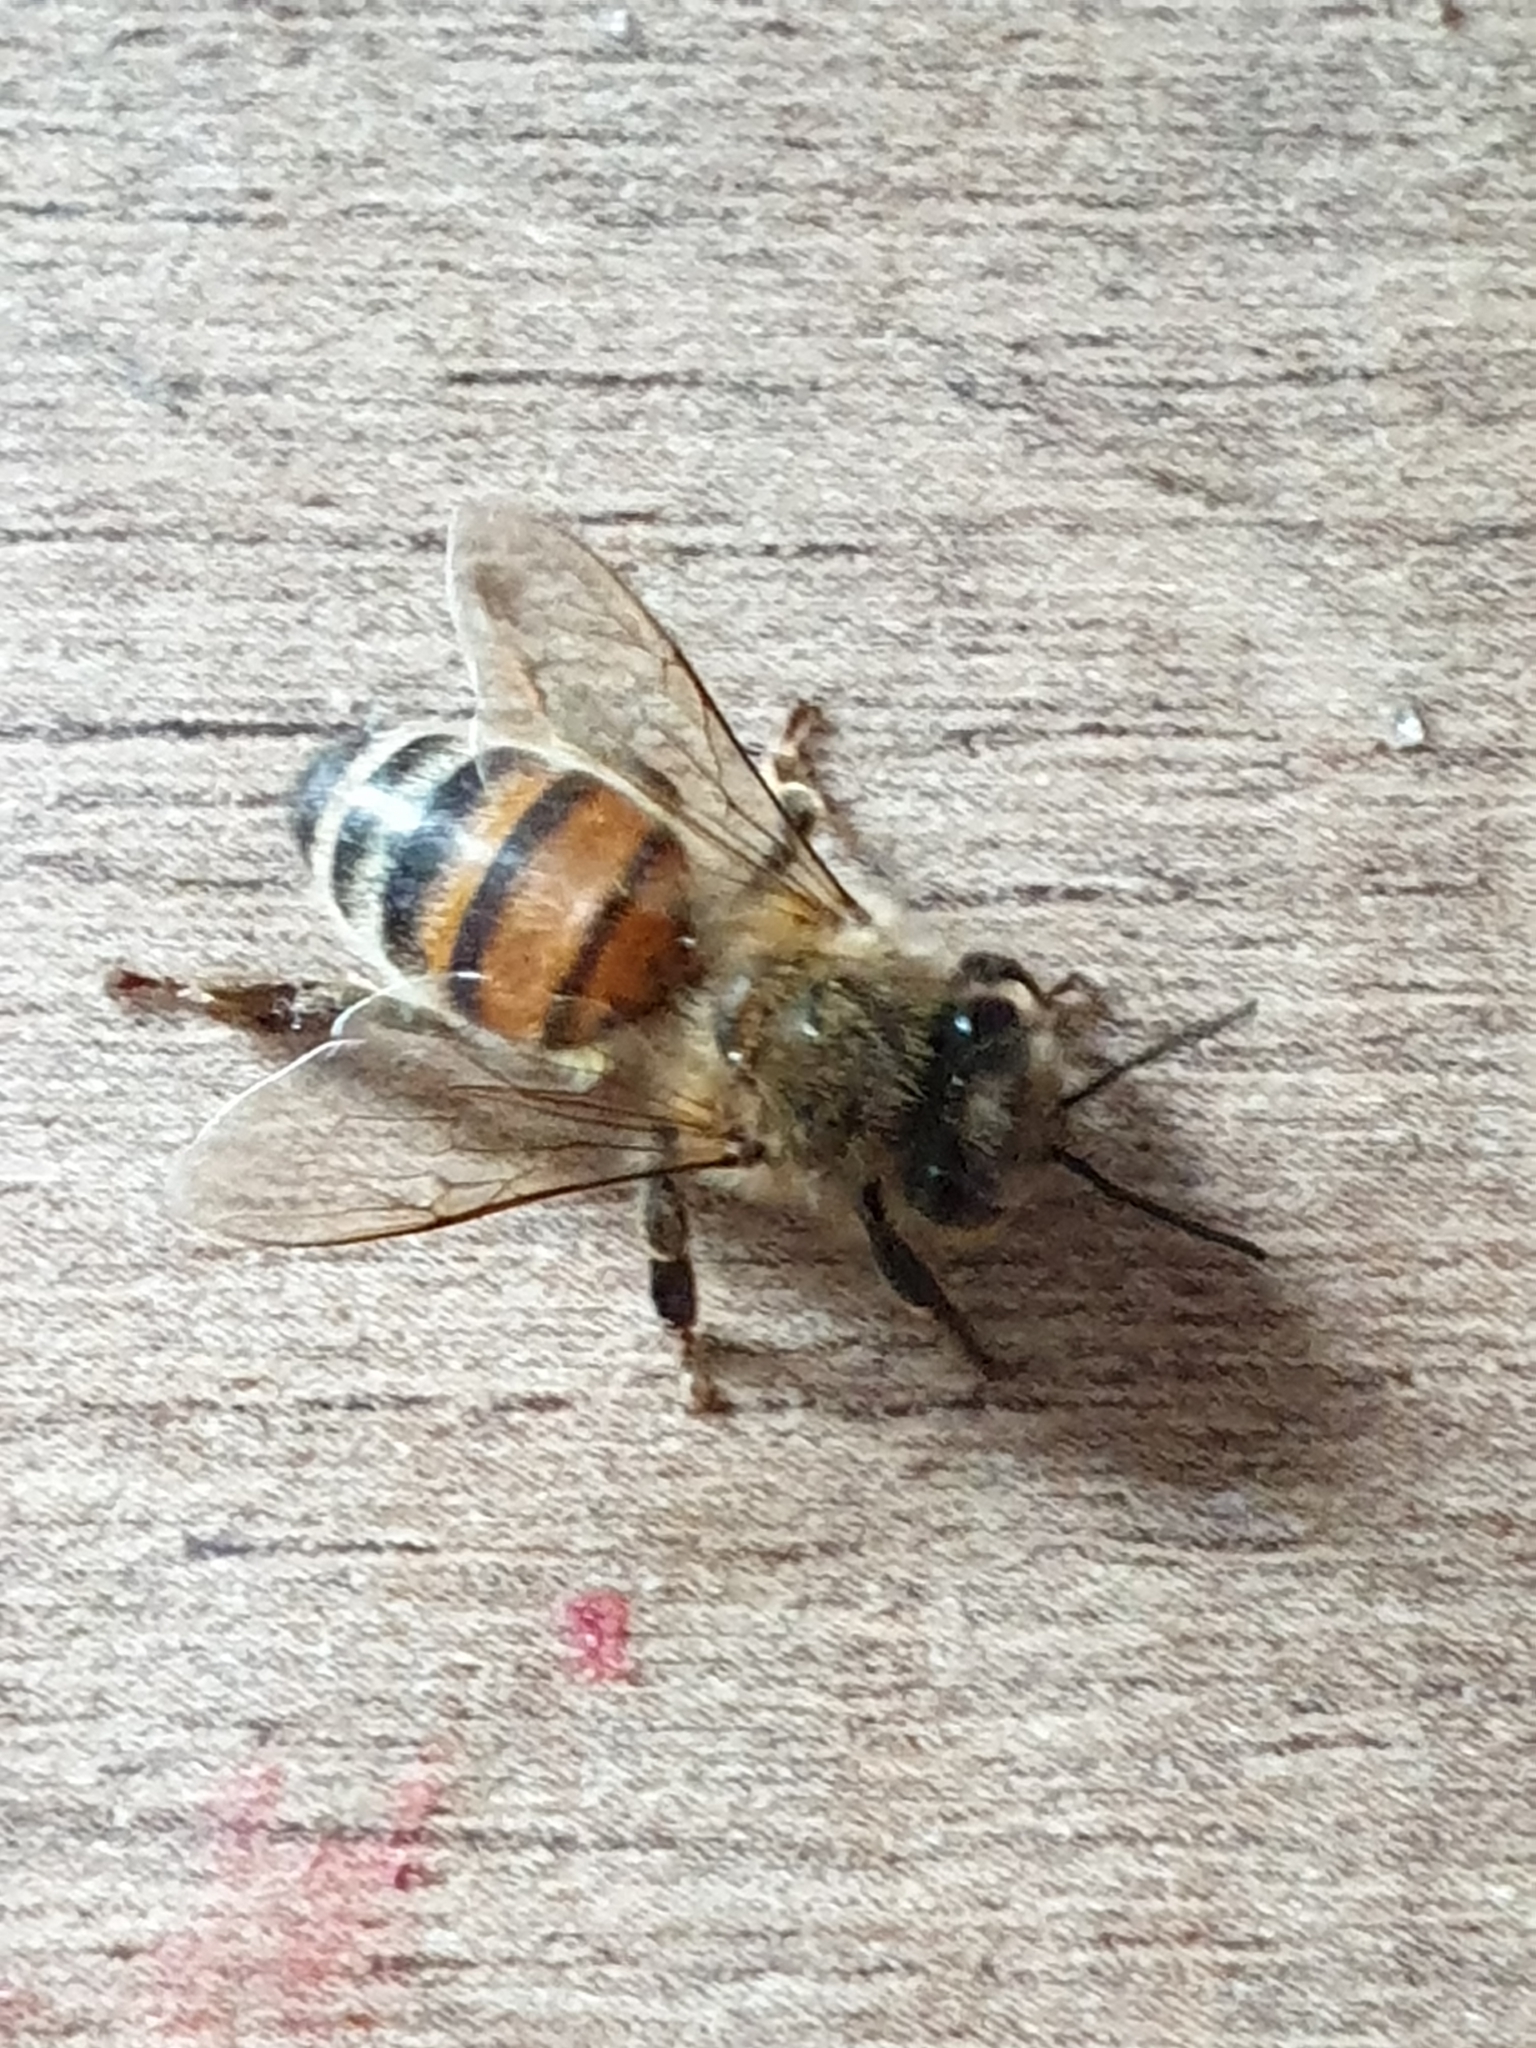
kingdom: Animalia
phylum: Arthropoda
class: Insecta
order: Hymenoptera
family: Apidae
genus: Apis
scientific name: Apis mellifera
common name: Honey bee
